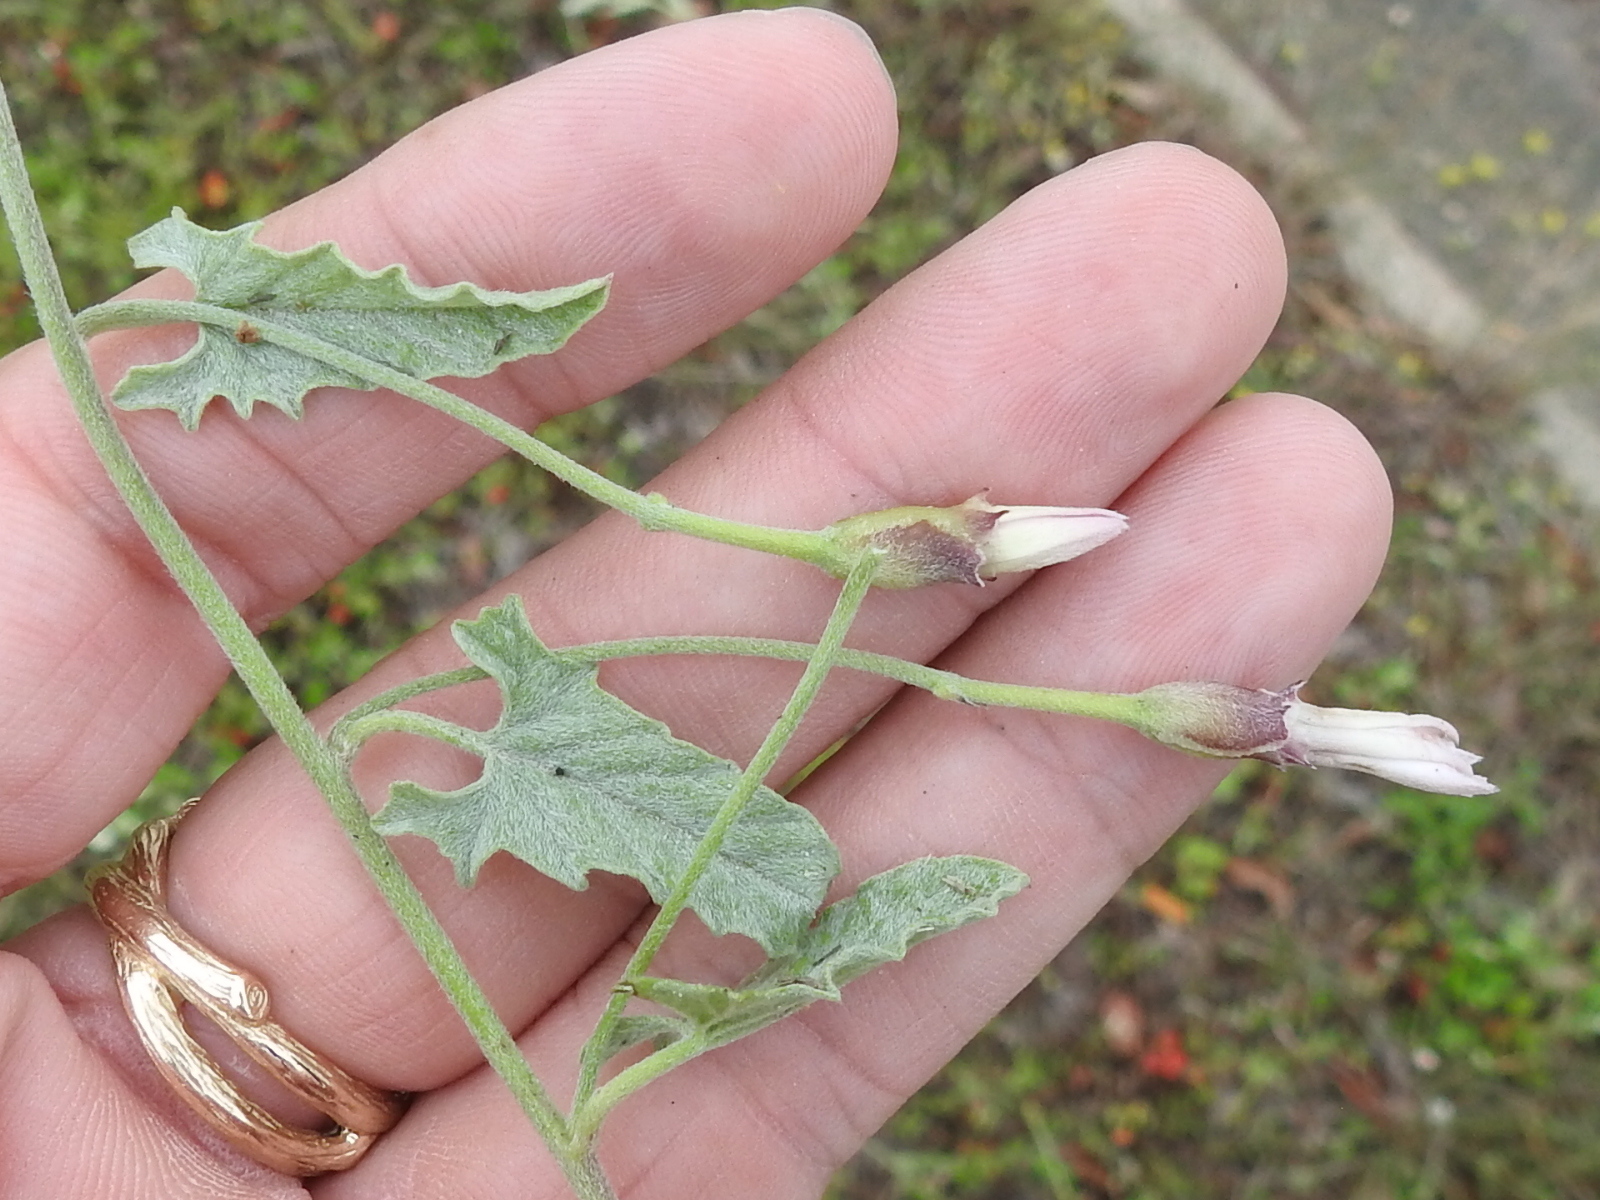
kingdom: Plantae
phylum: Tracheophyta
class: Magnoliopsida
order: Solanales
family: Convolvulaceae
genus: Convolvulus
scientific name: Convolvulus equitans
